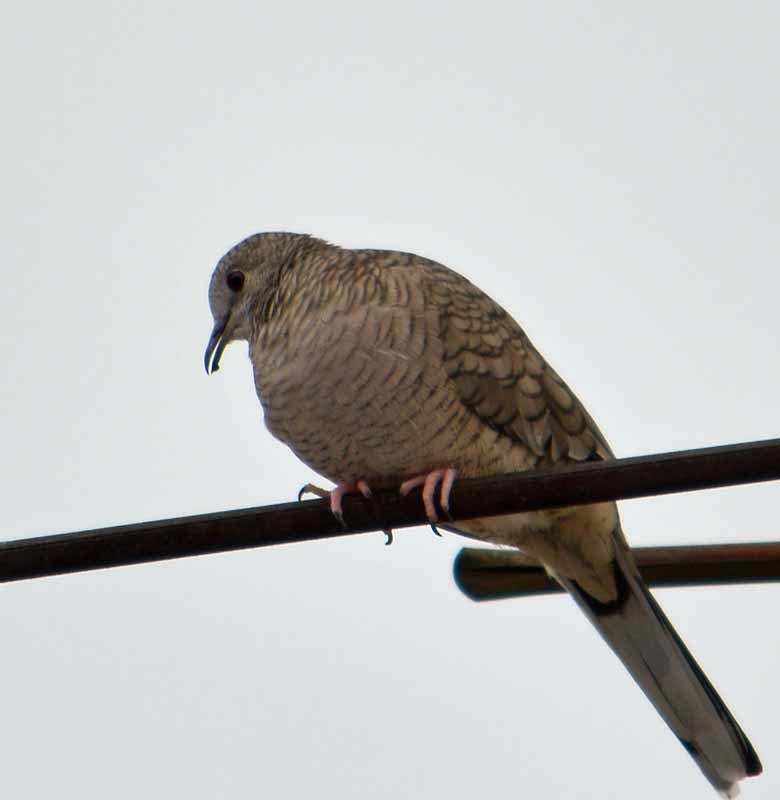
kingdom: Animalia
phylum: Chordata
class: Aves
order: Columbiformes
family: Columbidae
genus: Columbina
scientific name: Columbina inca
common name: Inca dove
